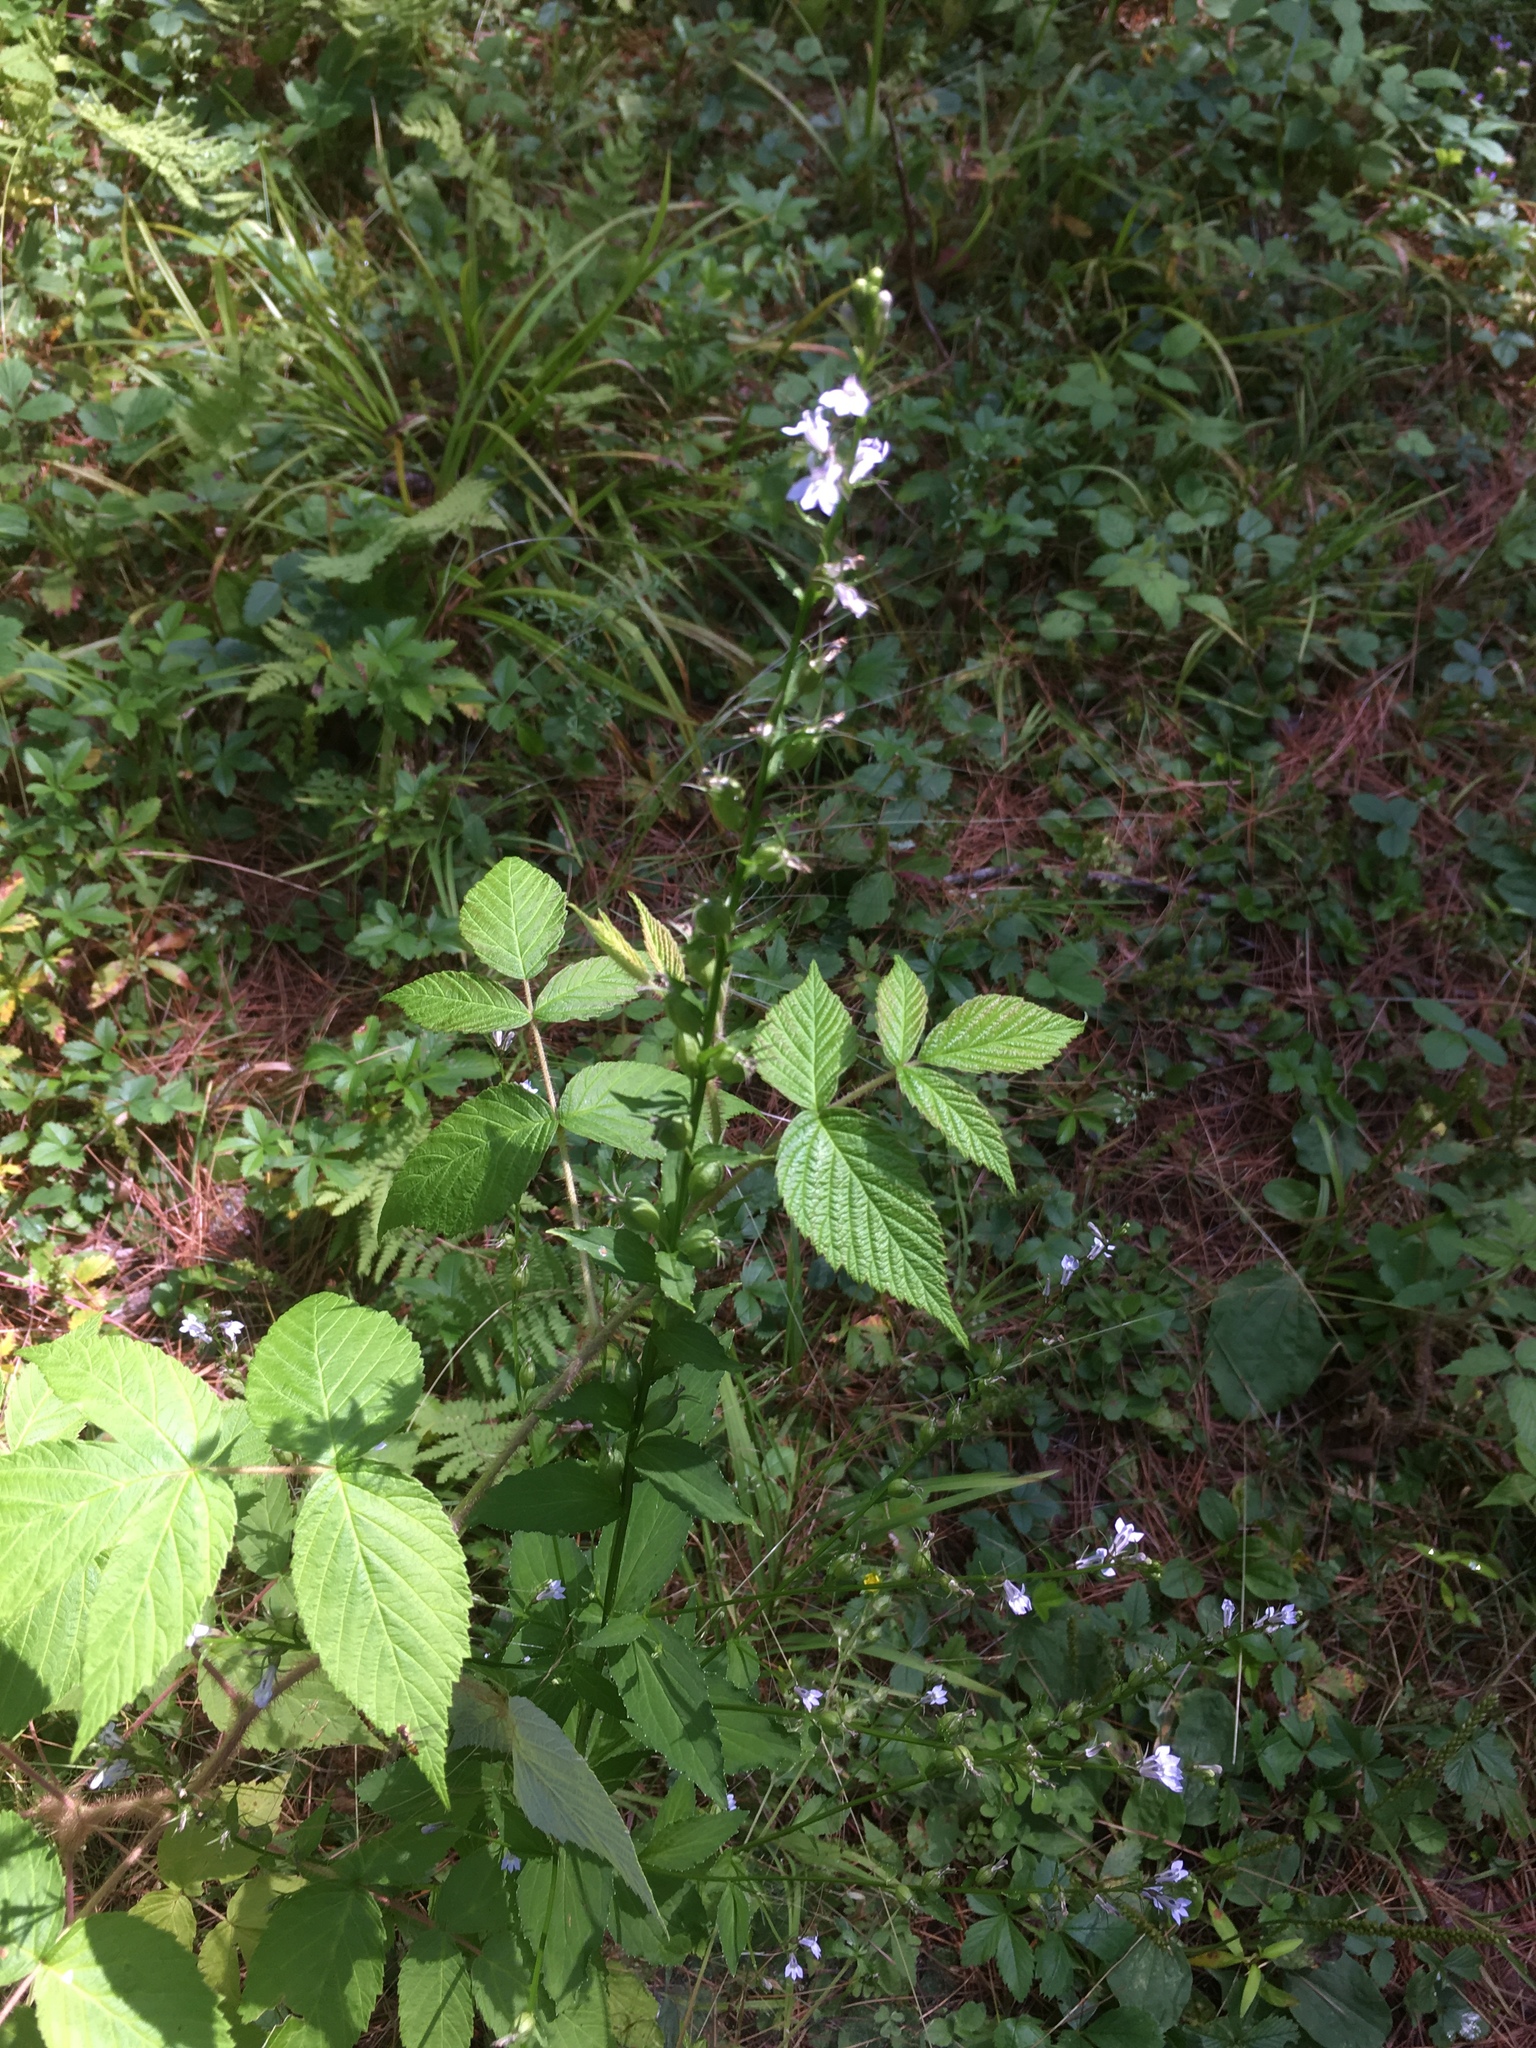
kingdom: Plantae
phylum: Tracheophyta
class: Magnoliopsida
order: Asterales
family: Campanulaceae
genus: Lobelia
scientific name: Lobelia inflata
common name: Indian tobacco
